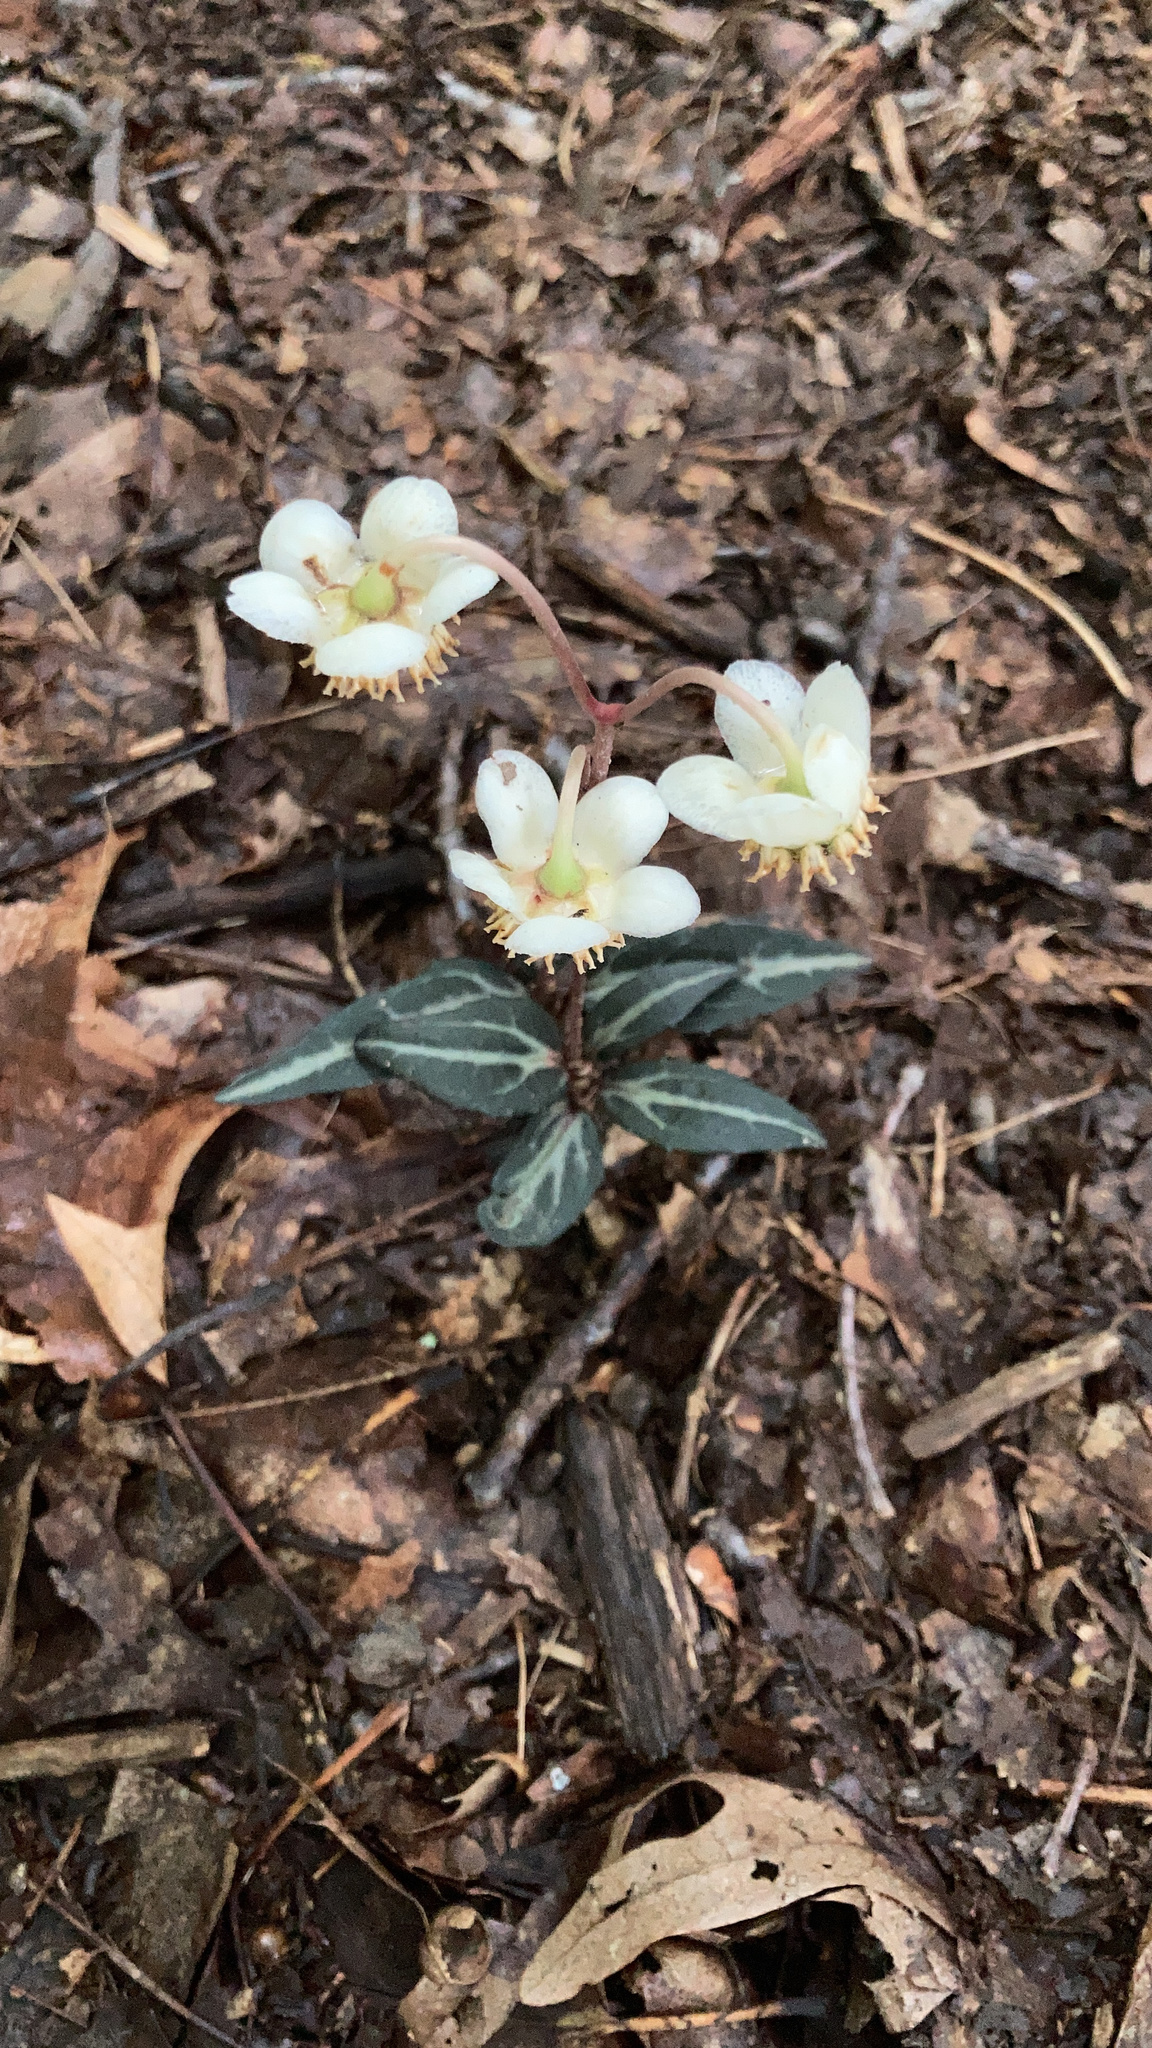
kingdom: Plantae
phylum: Tracheophyta
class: Magnoliopsida
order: Ericales
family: Ericaceae
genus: Chimaphila
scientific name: Chimaphila maculata
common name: Spotted pipsissewa
